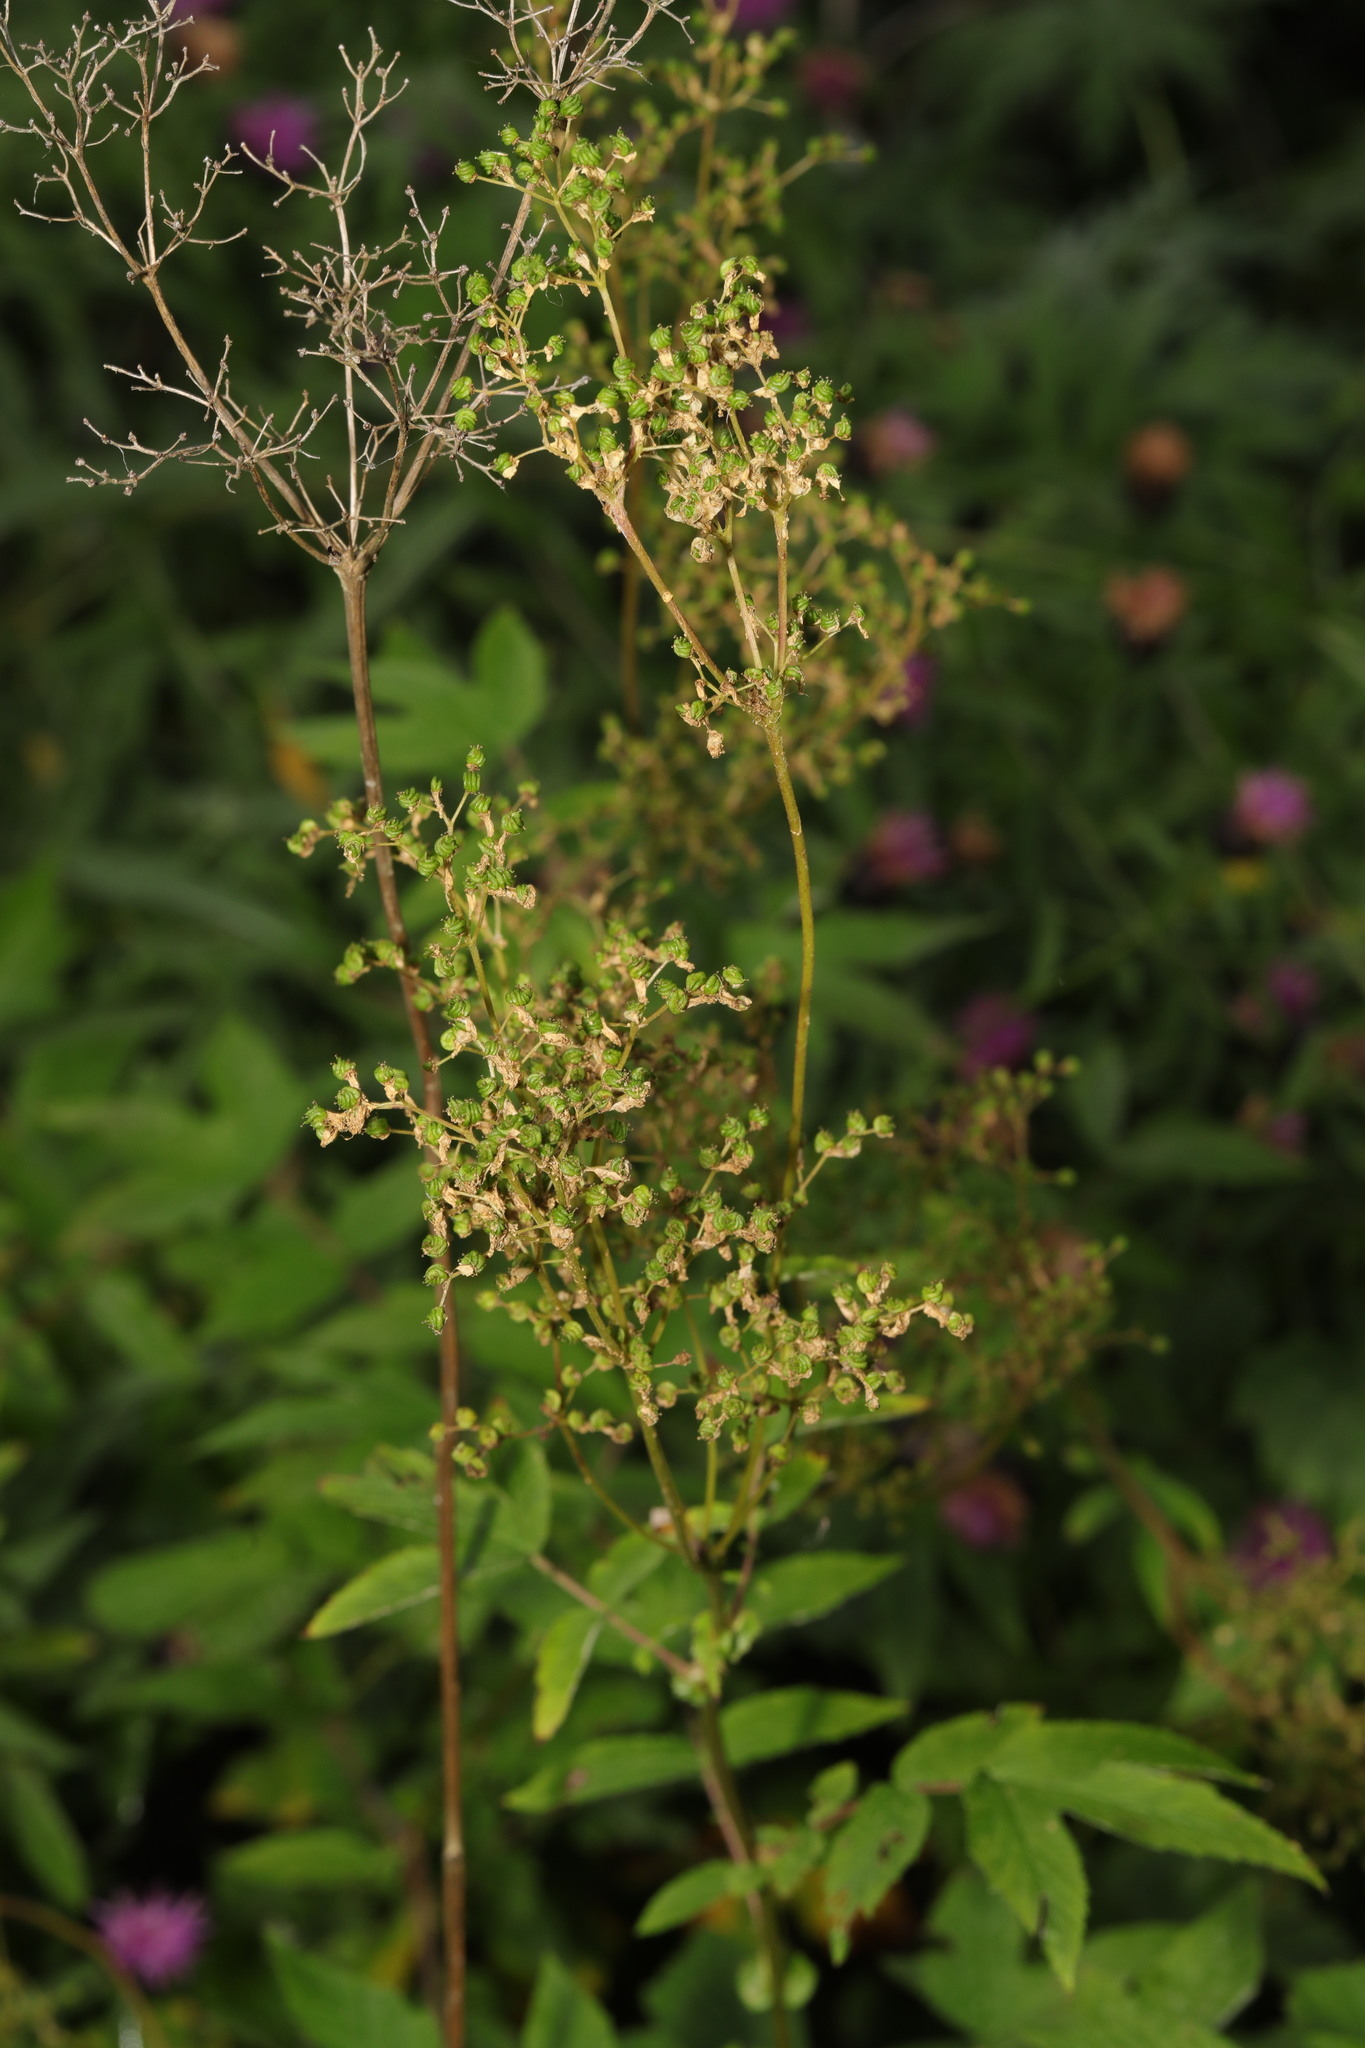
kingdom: Plantae
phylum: Tracheophyta
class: Magnoliopsida
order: Rosales
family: Rosaceae
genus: Filipendula
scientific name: Filipendula ulmaria
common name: Meadowsweet
